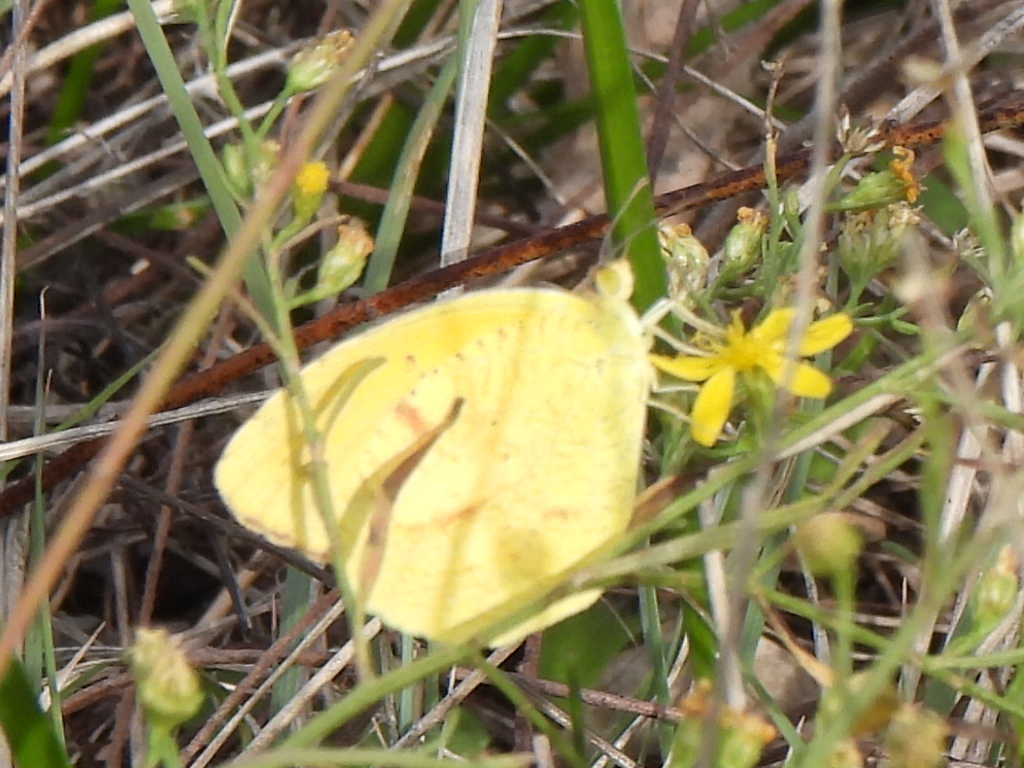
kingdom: Animalia
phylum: Arthropoda
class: Insecta
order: Lepidoptera
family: Pieridae
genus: Abaeis
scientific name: Abaeis nicippe
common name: Sleepy orange
